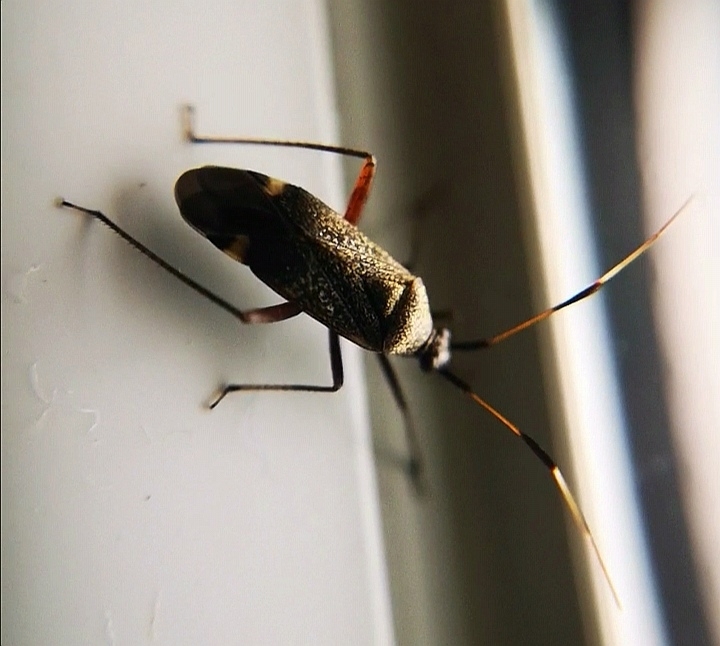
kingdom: Animalia
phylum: Arthropoda
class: Insecta
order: Hemiptera
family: Miridae
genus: Closterotomus
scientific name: Closterotomus biclavatus
